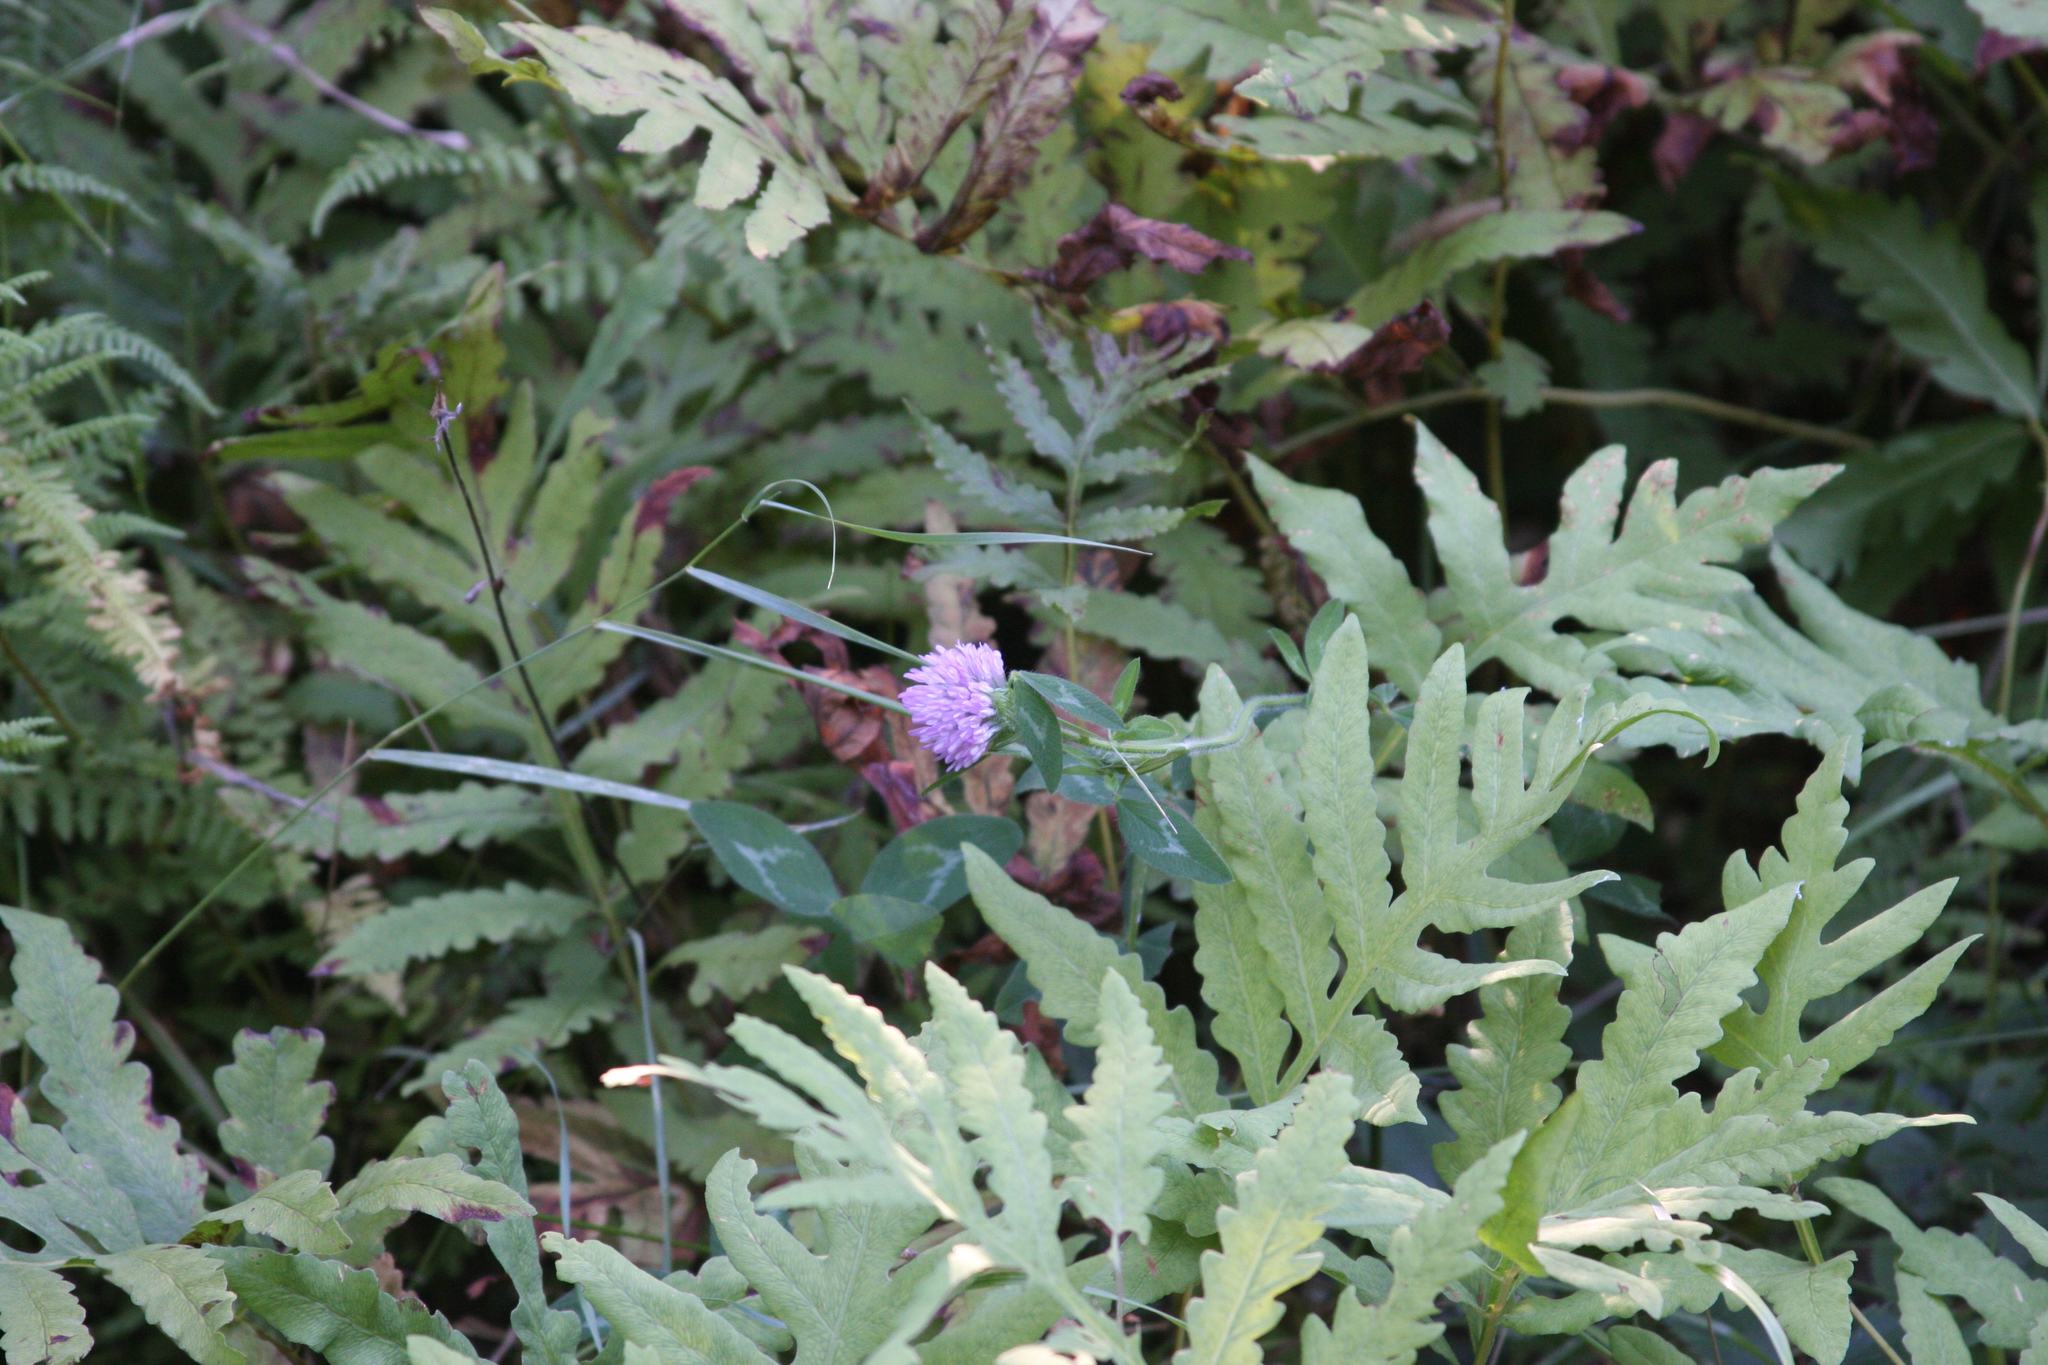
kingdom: Plantae
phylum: Tracheophyta
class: Magnoliopsida
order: Fabales
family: Fabaceae
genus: Trifolium
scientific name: Trifolium pratense
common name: Red clover
